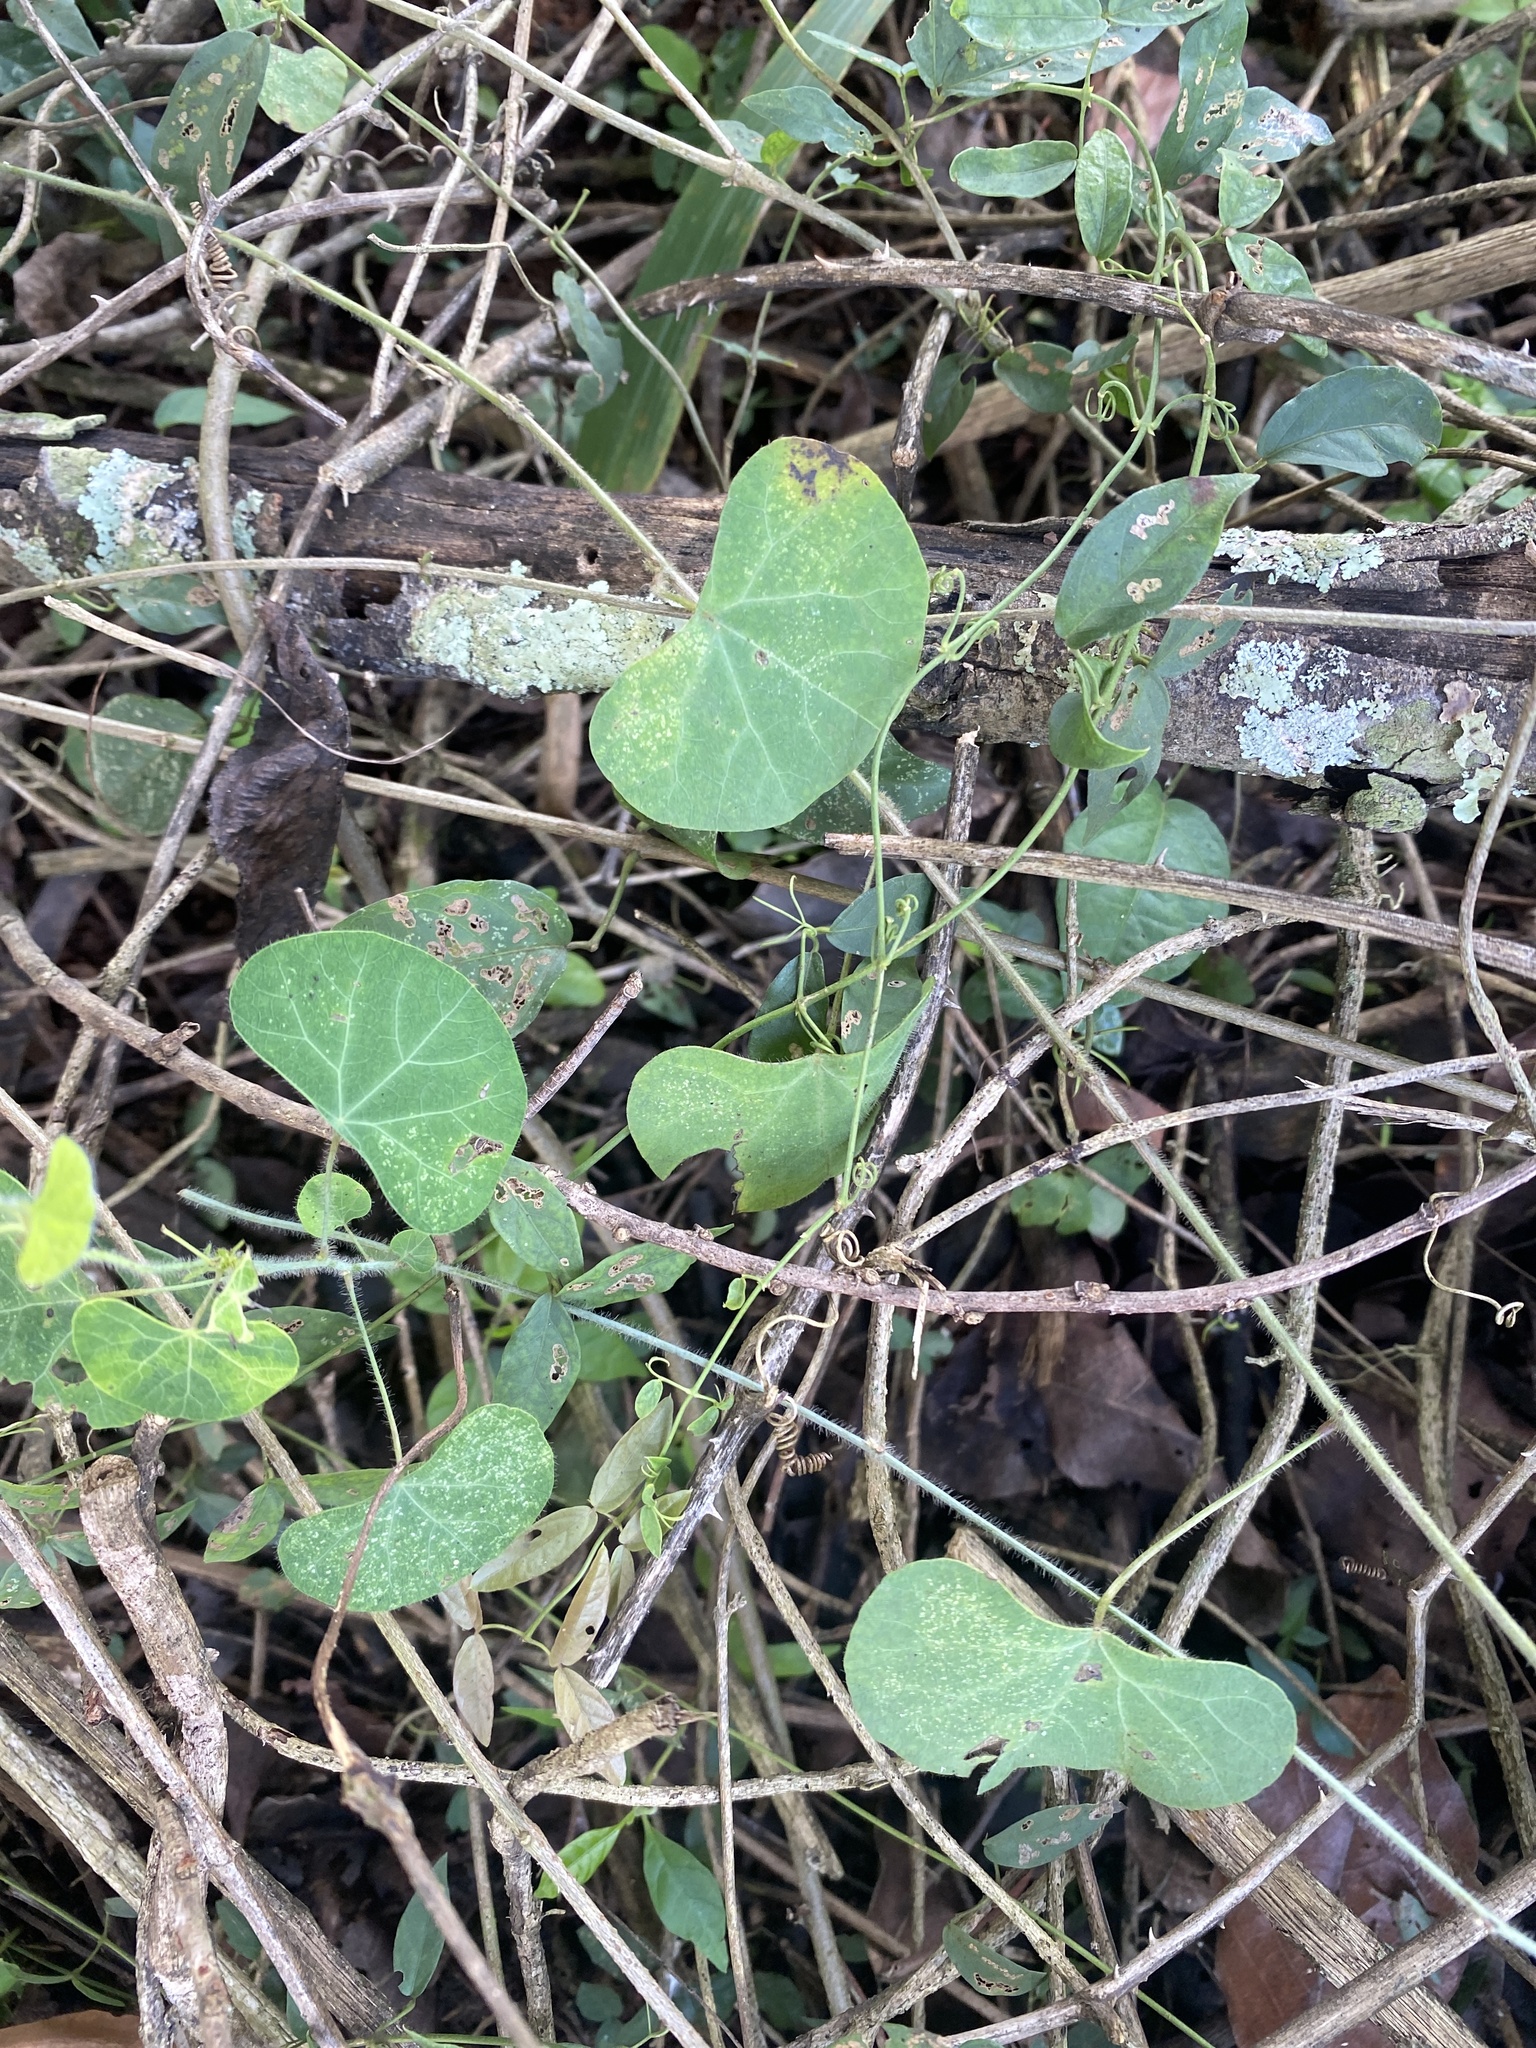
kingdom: Plantae
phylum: Tracheophyta
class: Magnoliopsida
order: Ranunculales
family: Menispermaceae
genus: Cissampelos
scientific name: Cissampelos torulosa
